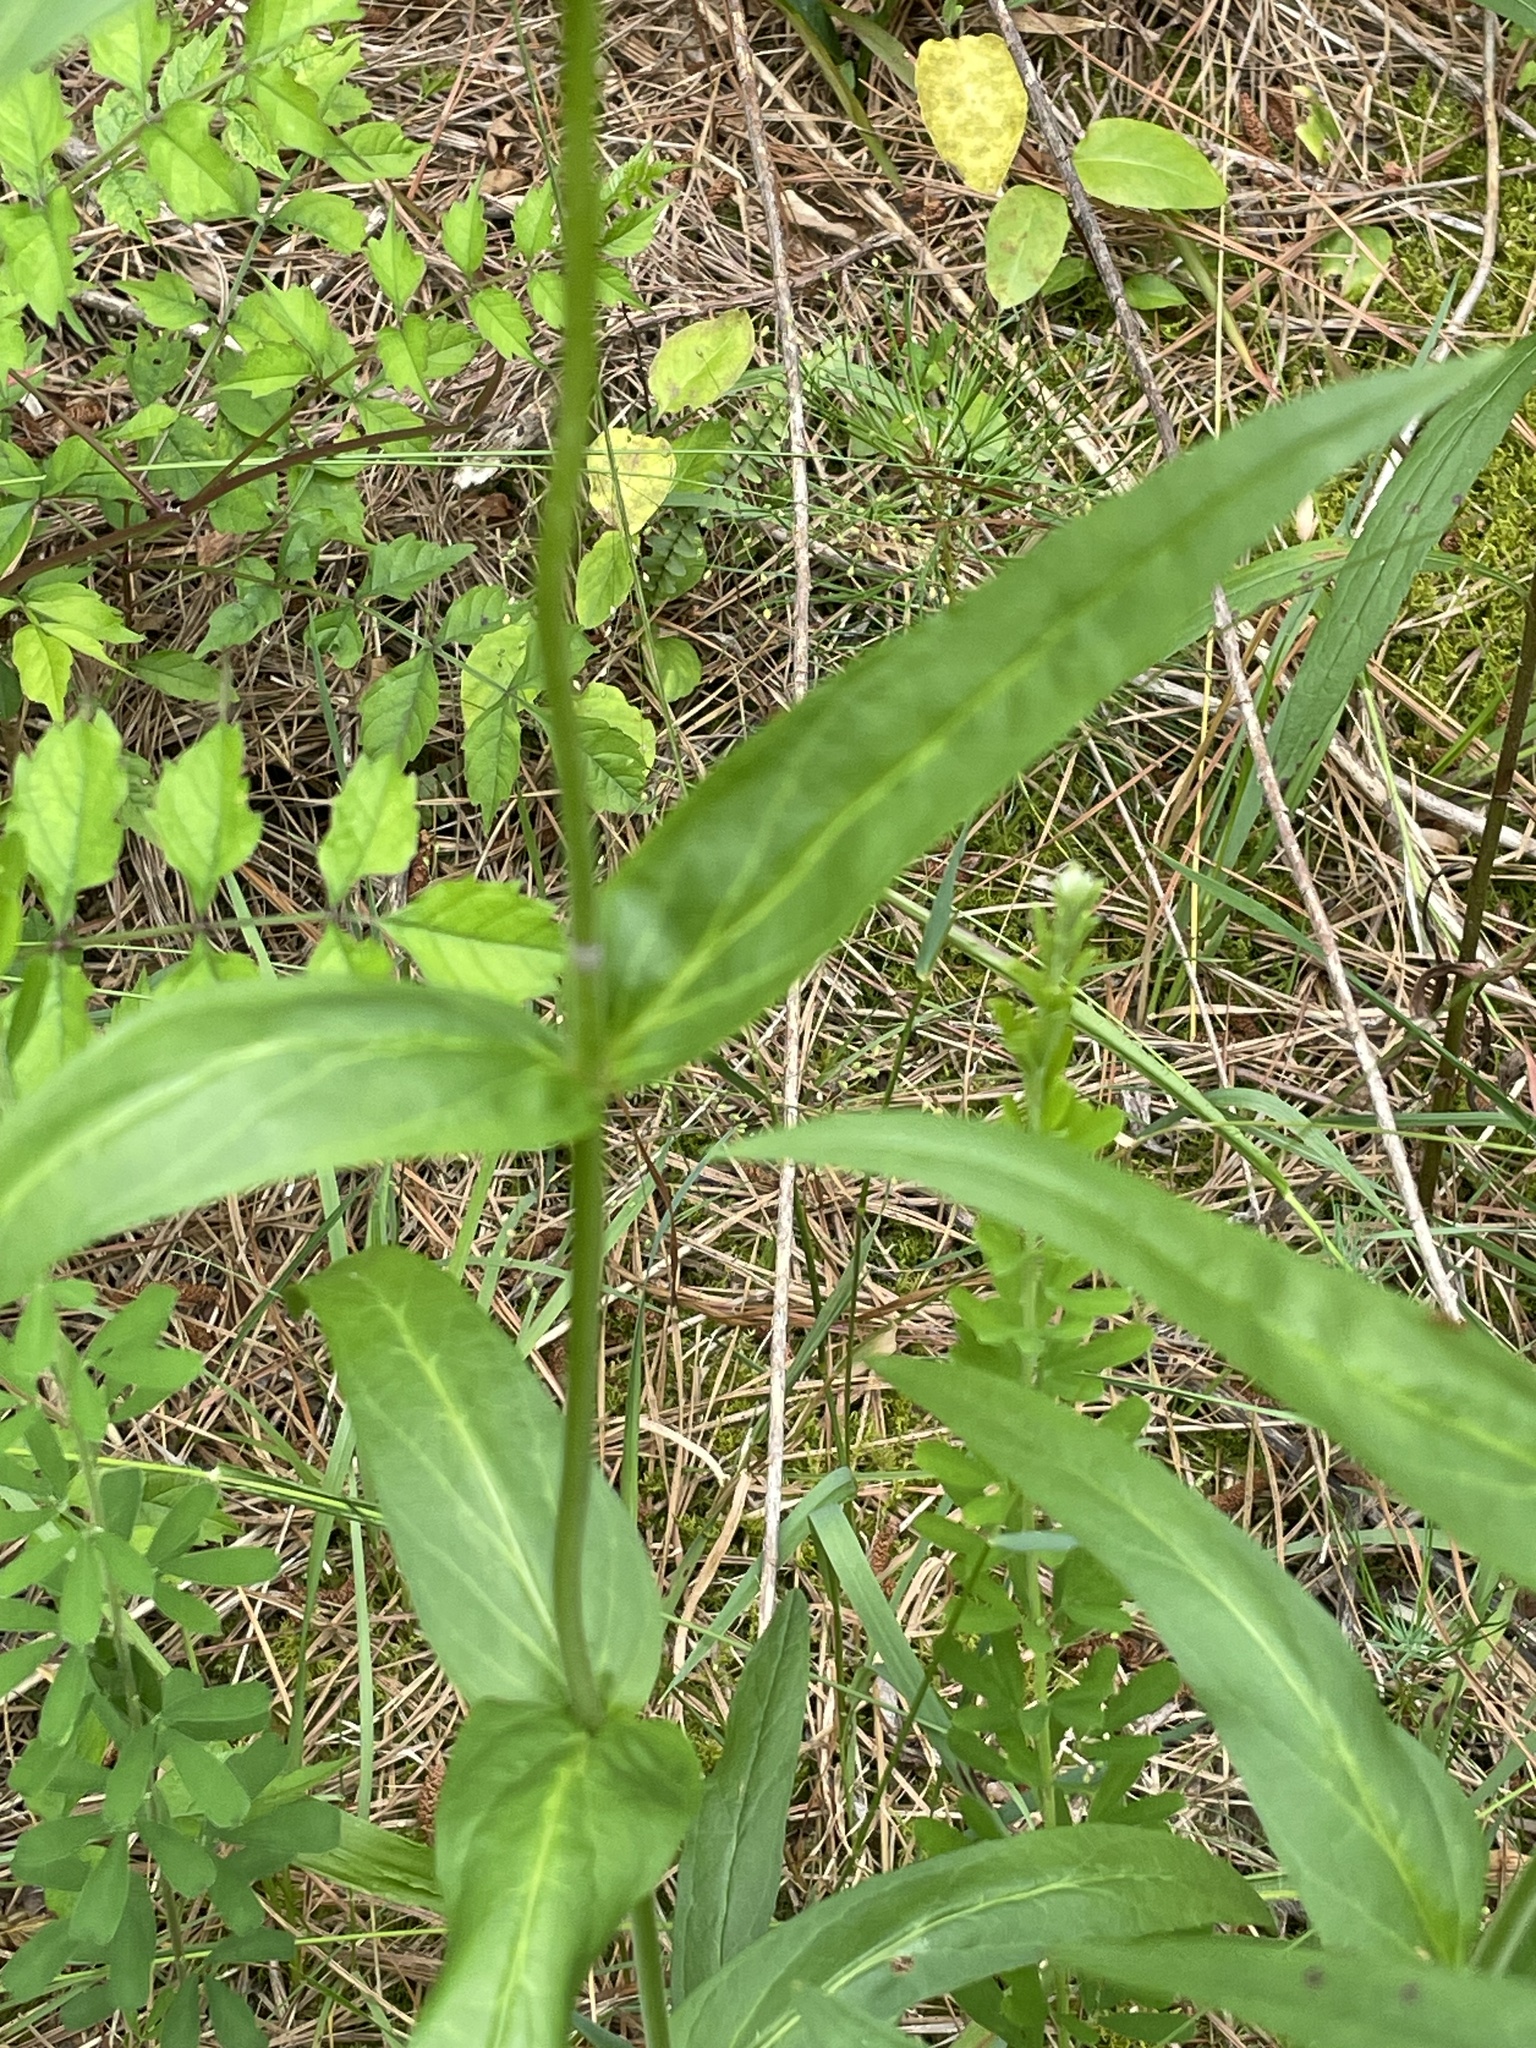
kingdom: Plantae
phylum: Tracheophyta
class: Magnoliopsida
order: Lamiales
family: Plantaginaceae
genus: Penstemon
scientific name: Penstemon laevigatus
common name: Eastern beardtongue
